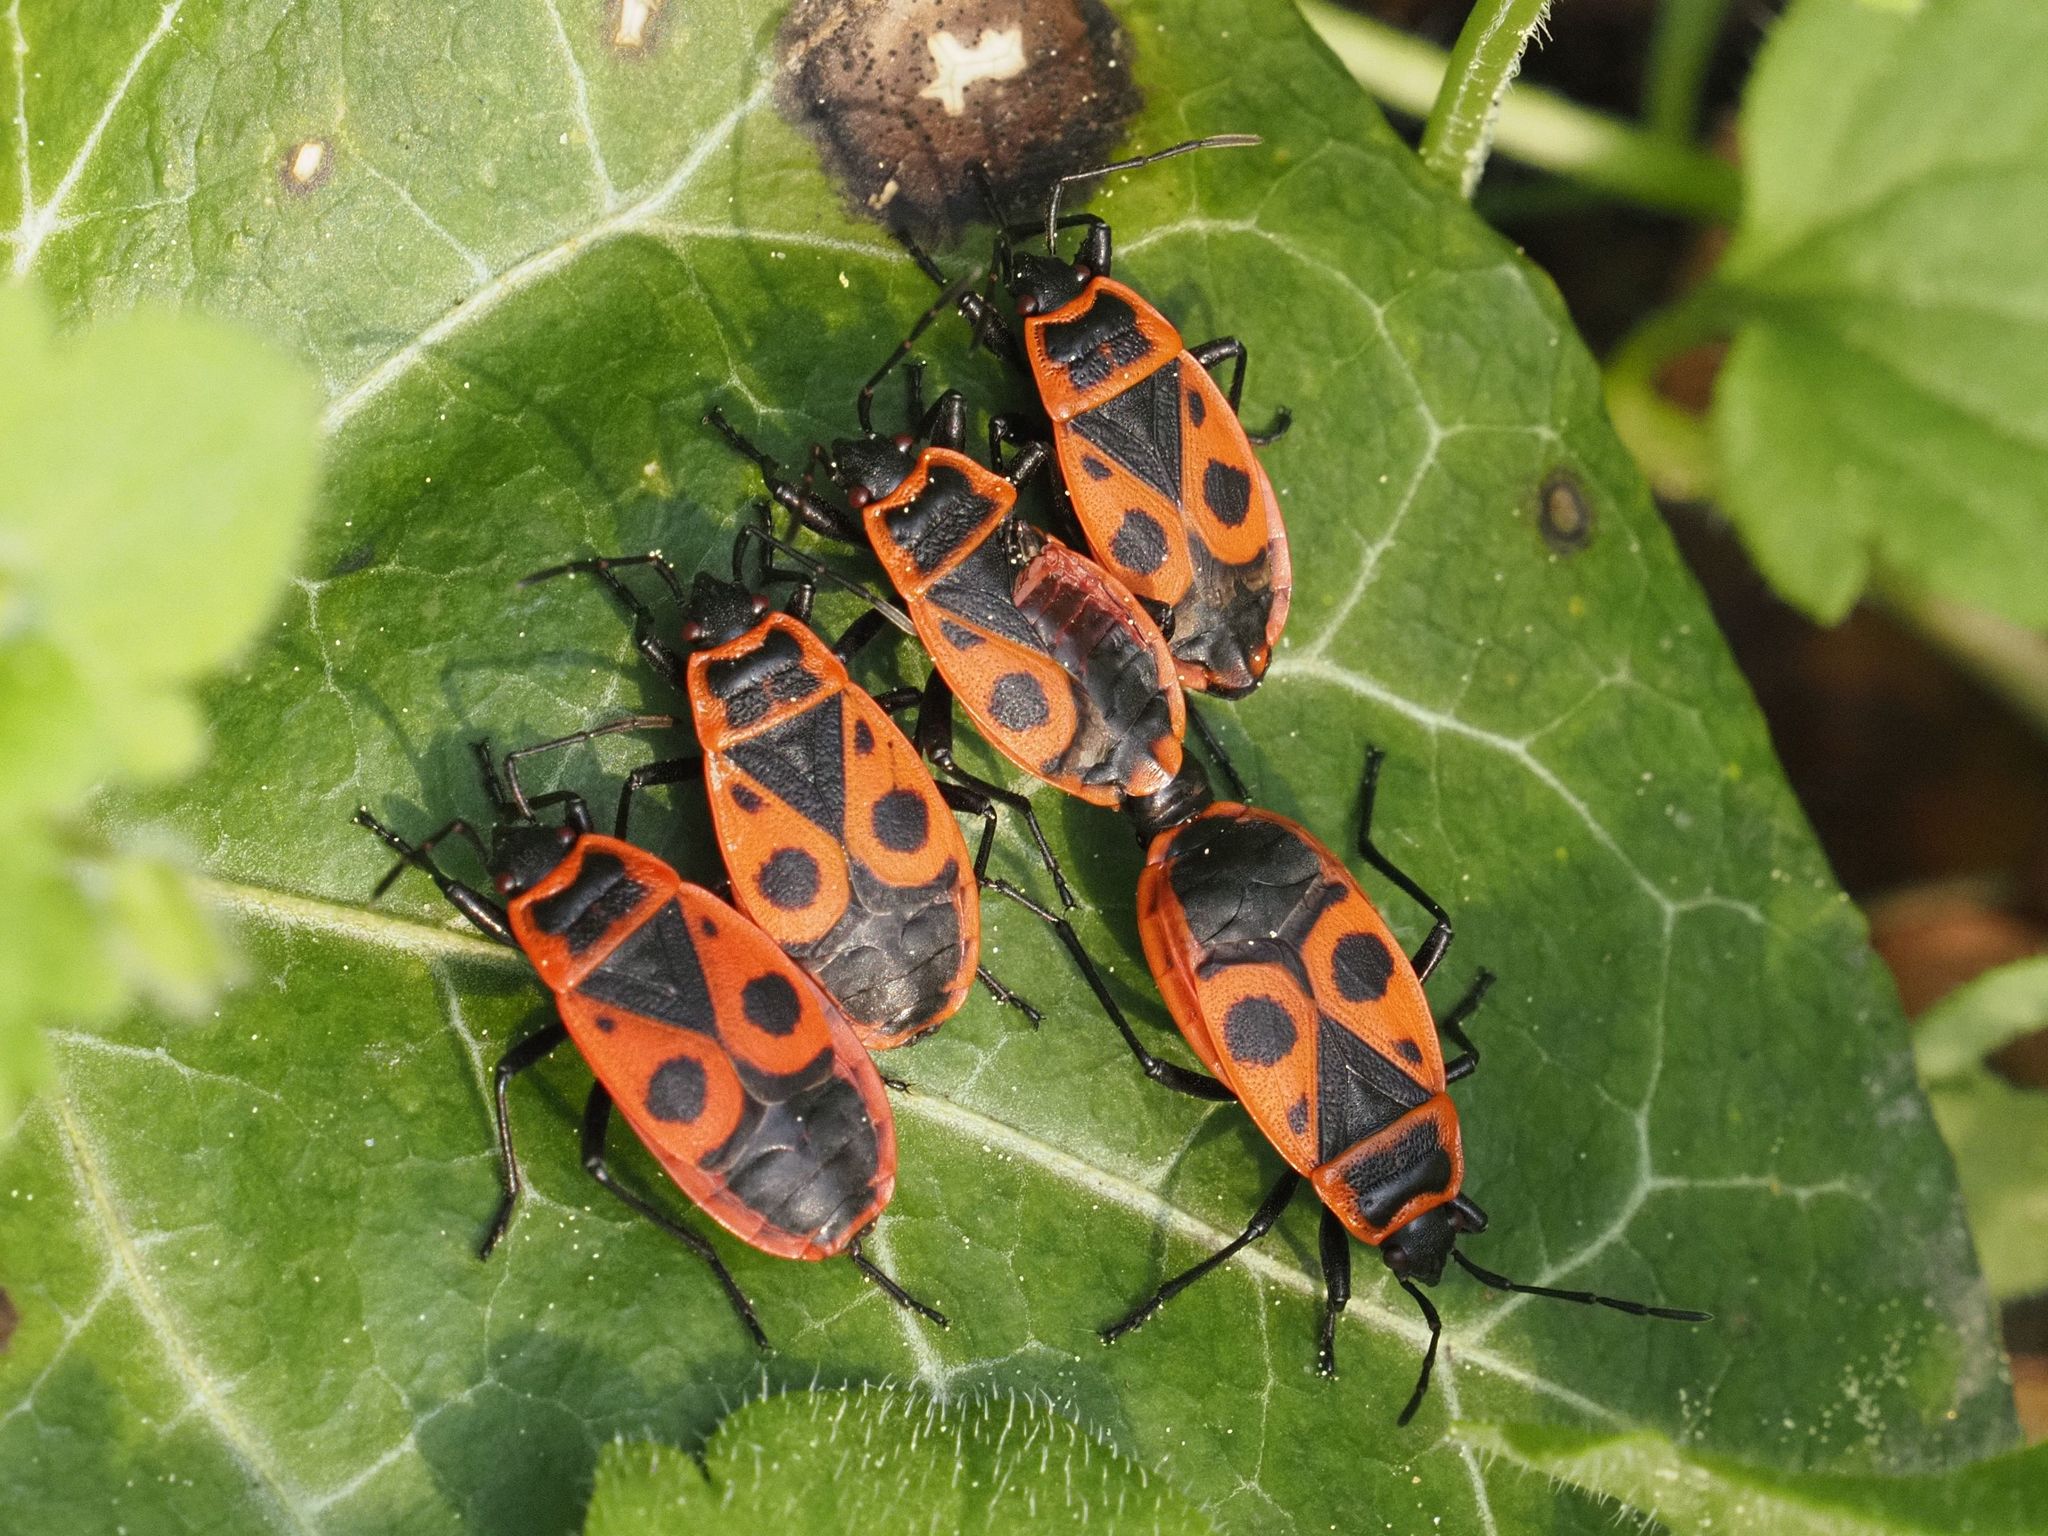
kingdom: Animalia
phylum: Arthropoda
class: Insecta
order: Hemiptera
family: Pyrrhocoridae
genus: Pyrrhocoris
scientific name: Pyrrhocoris apterus
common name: Firebug
